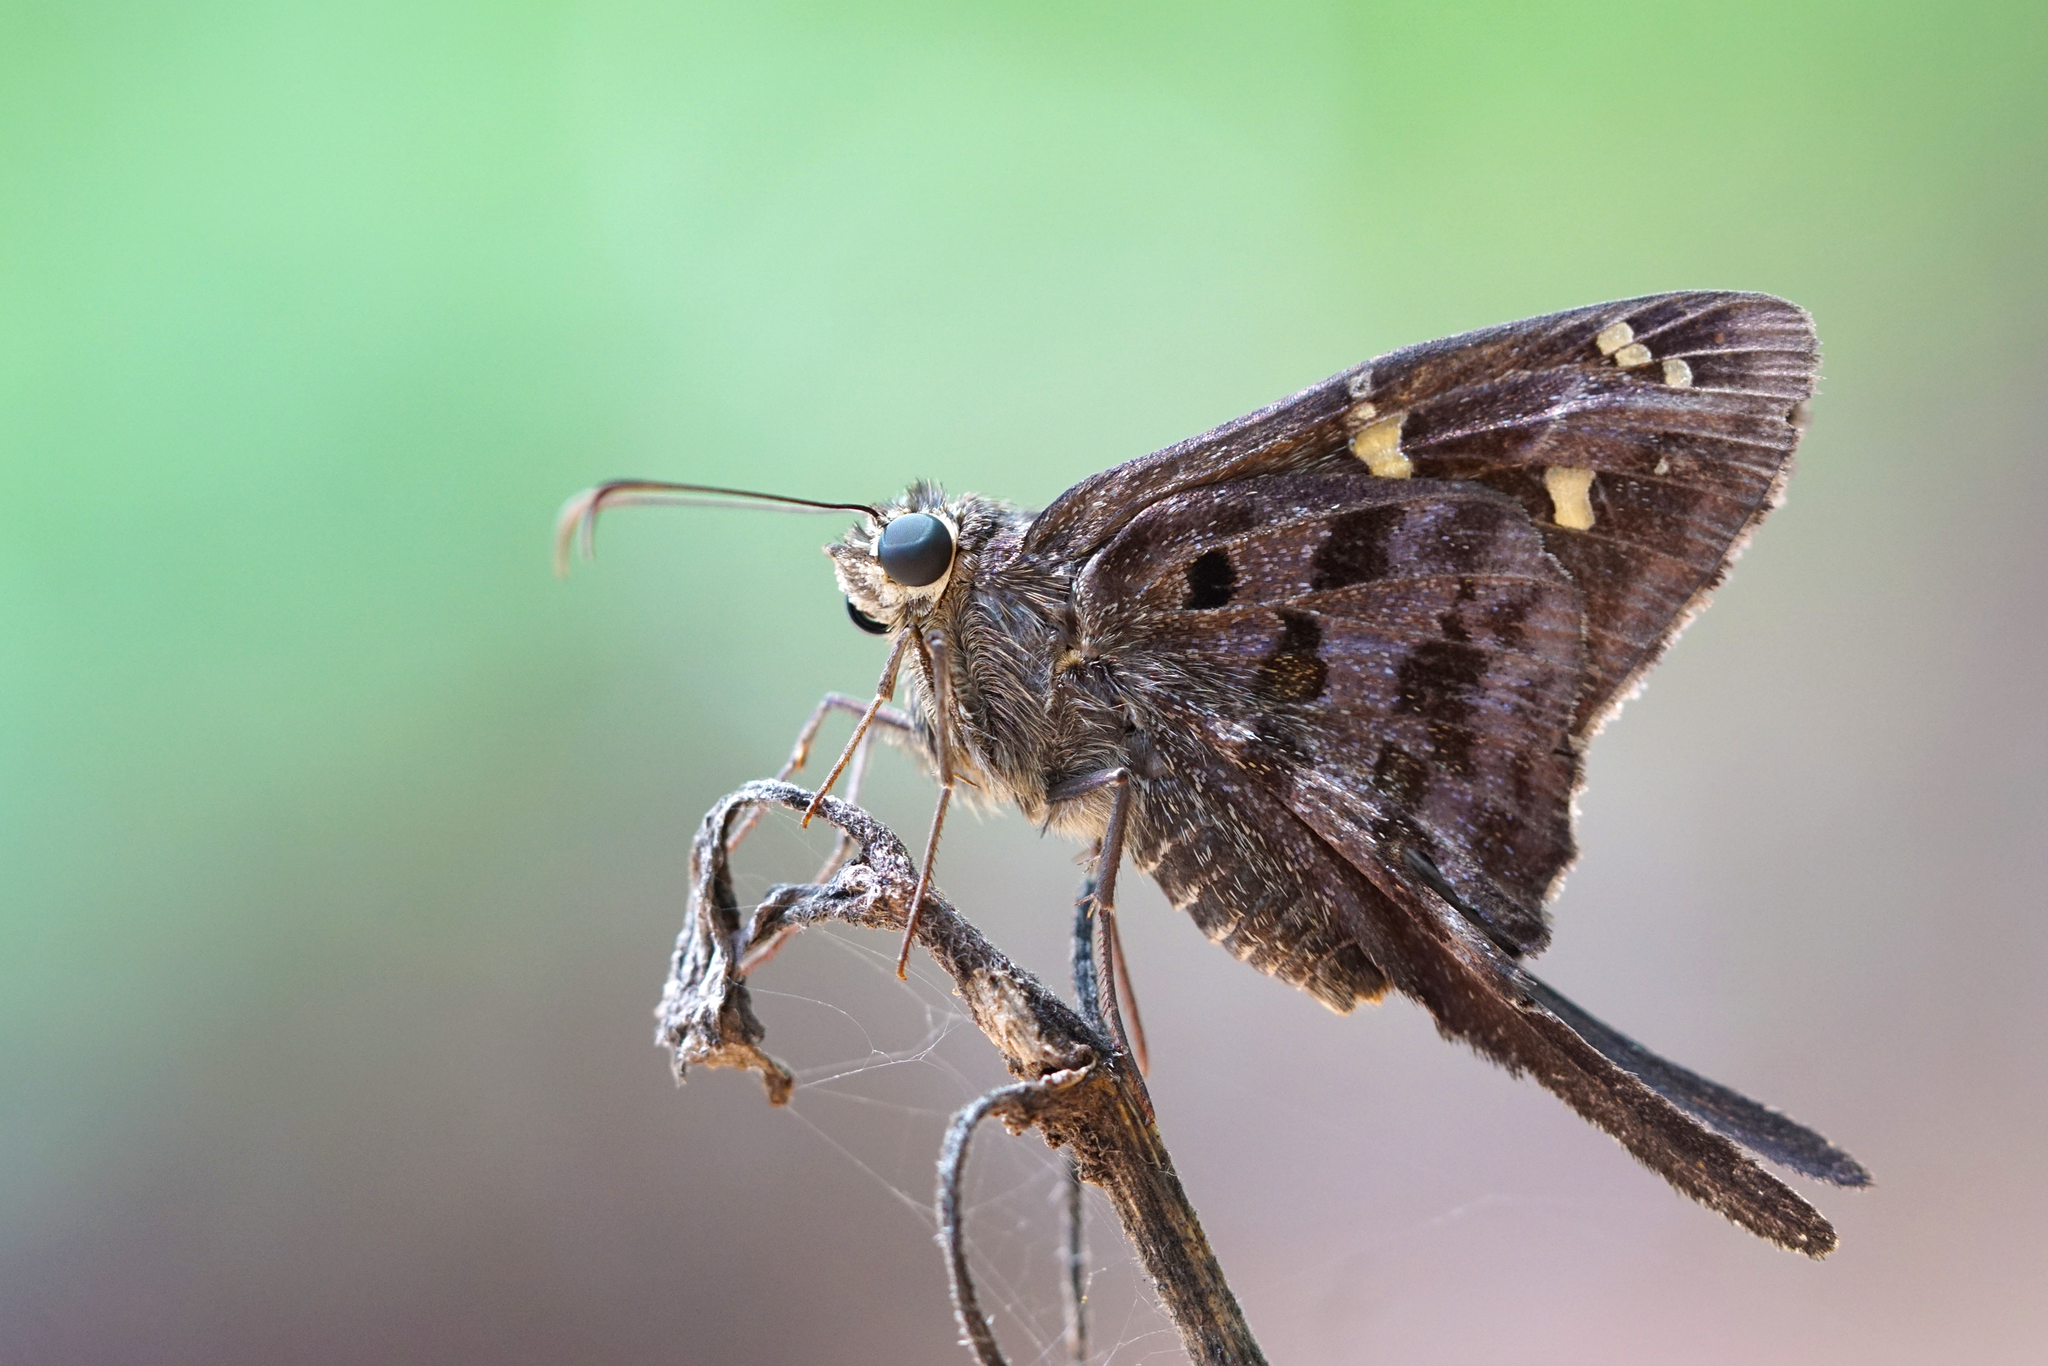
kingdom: Animalia
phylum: Arthropoda
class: Insecta
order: Lepidoptera
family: Hesperiidae
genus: Thorybes
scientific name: Thorybes
